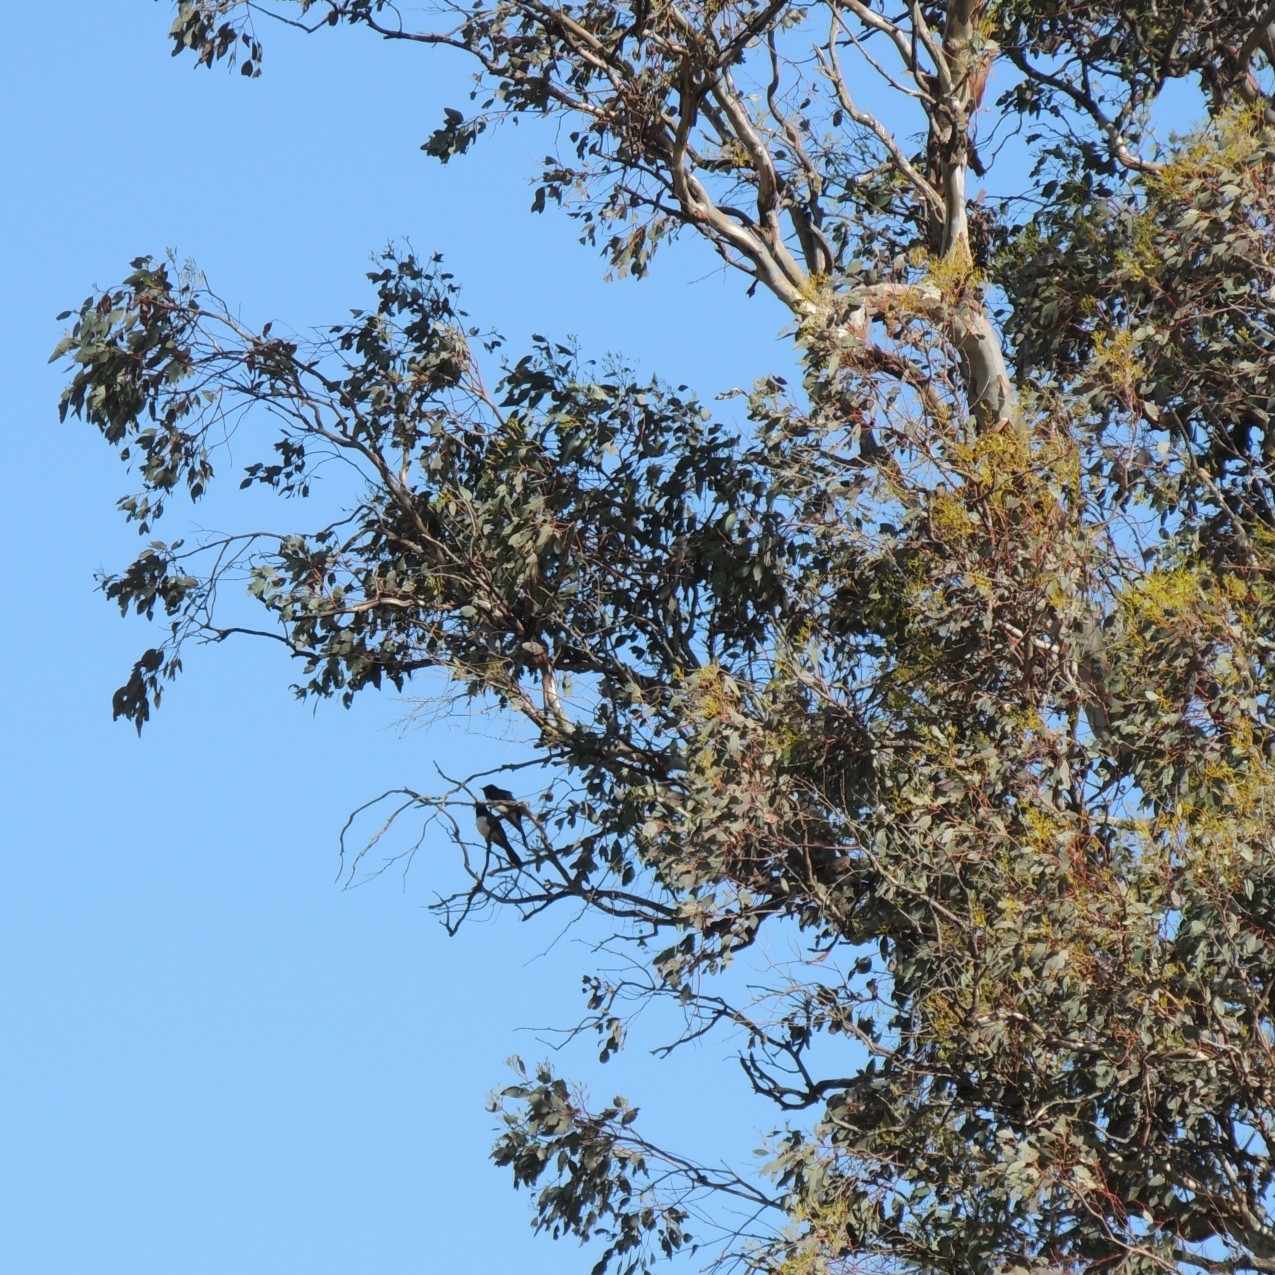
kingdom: Animalia
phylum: Chordata
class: Aves
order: Passeriformes
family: Rhipiduridae
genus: Rhipidura
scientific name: Rhipidura leucophrys
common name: Willie wagtail
